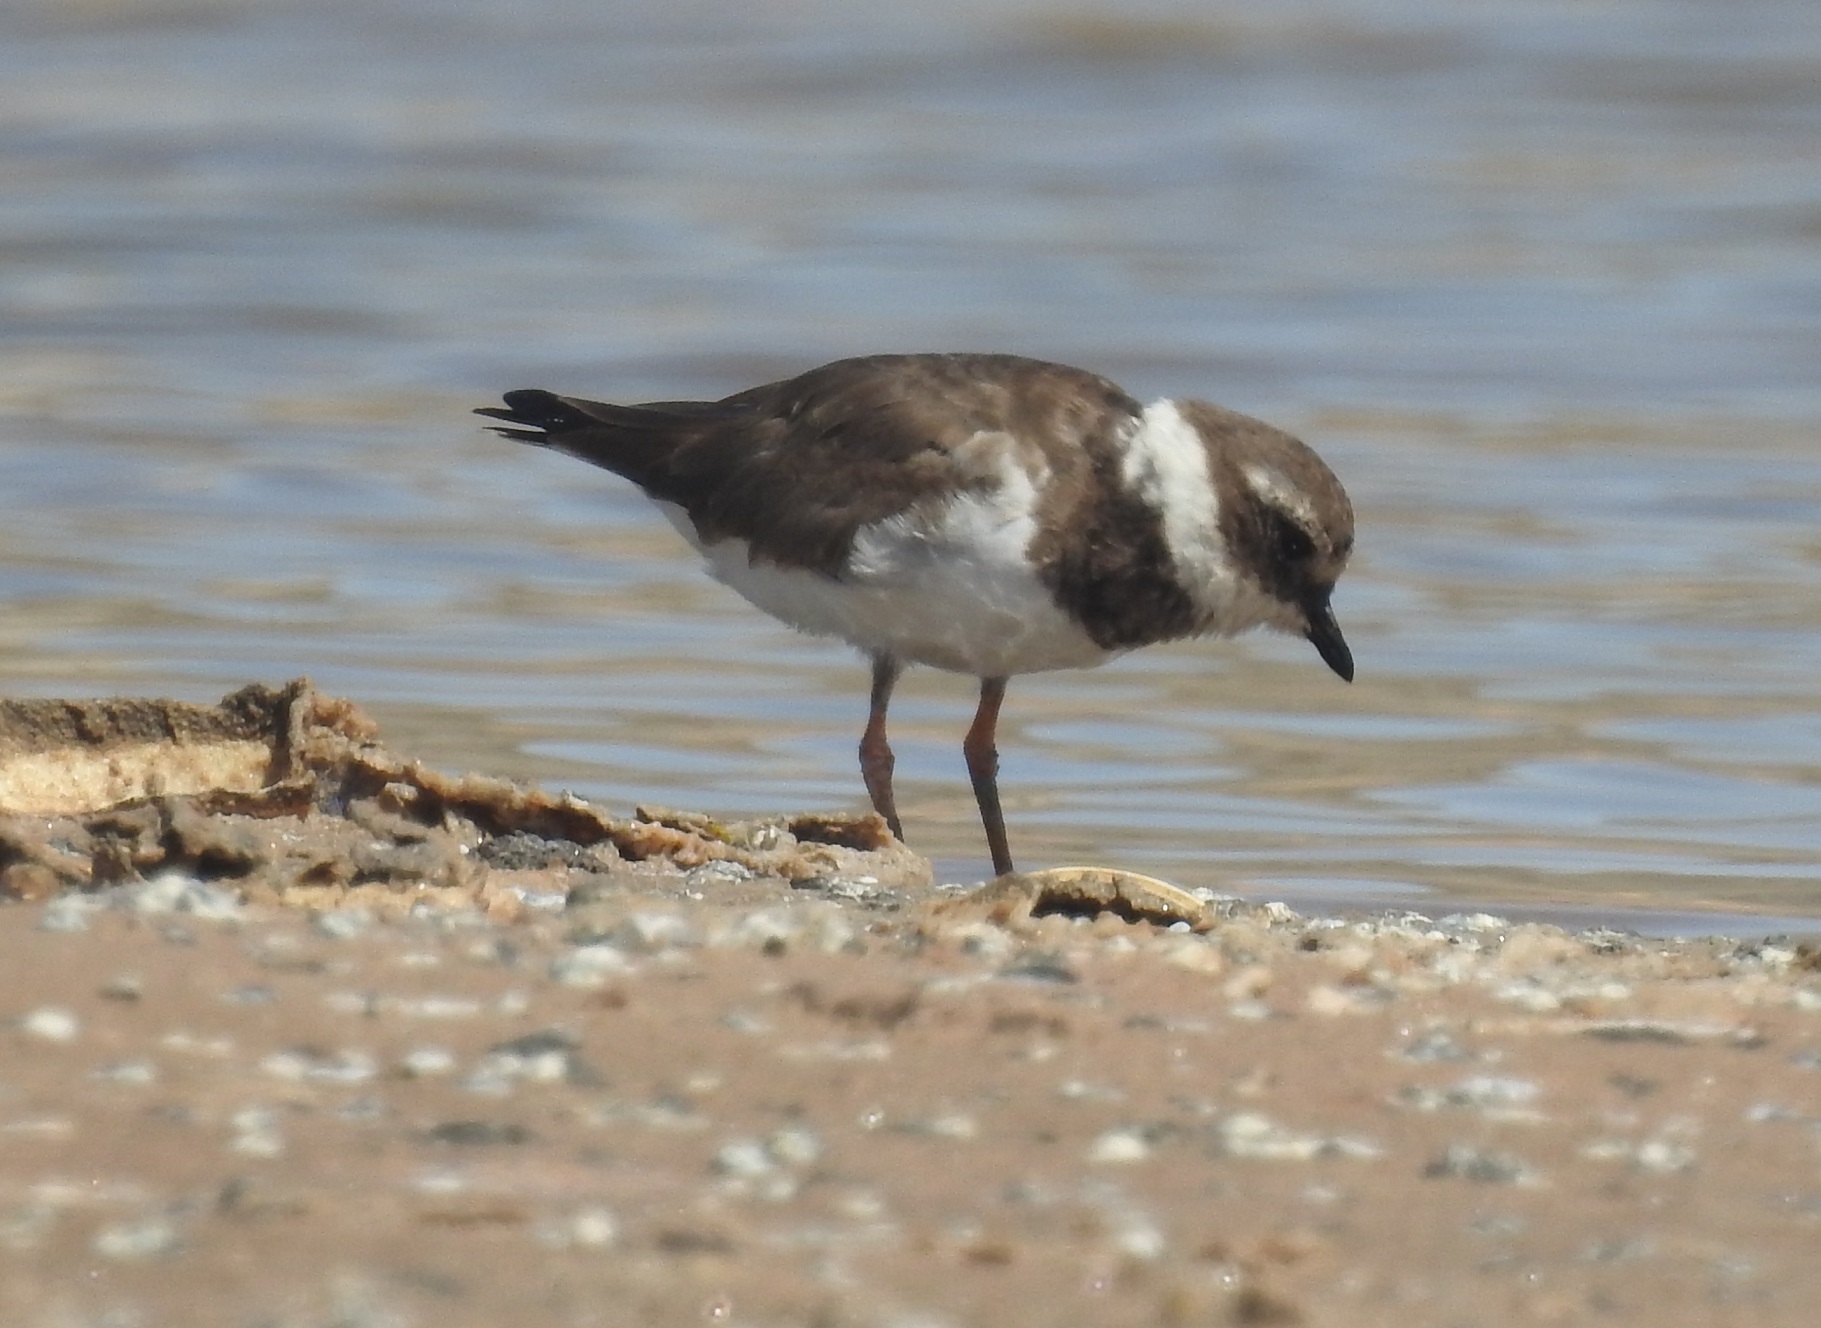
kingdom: Animalia
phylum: Chordata
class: Aves
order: Charadriiformes
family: Charadriidae
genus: Charadrius
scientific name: Charadrius hiaticula
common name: Common ringed plover
